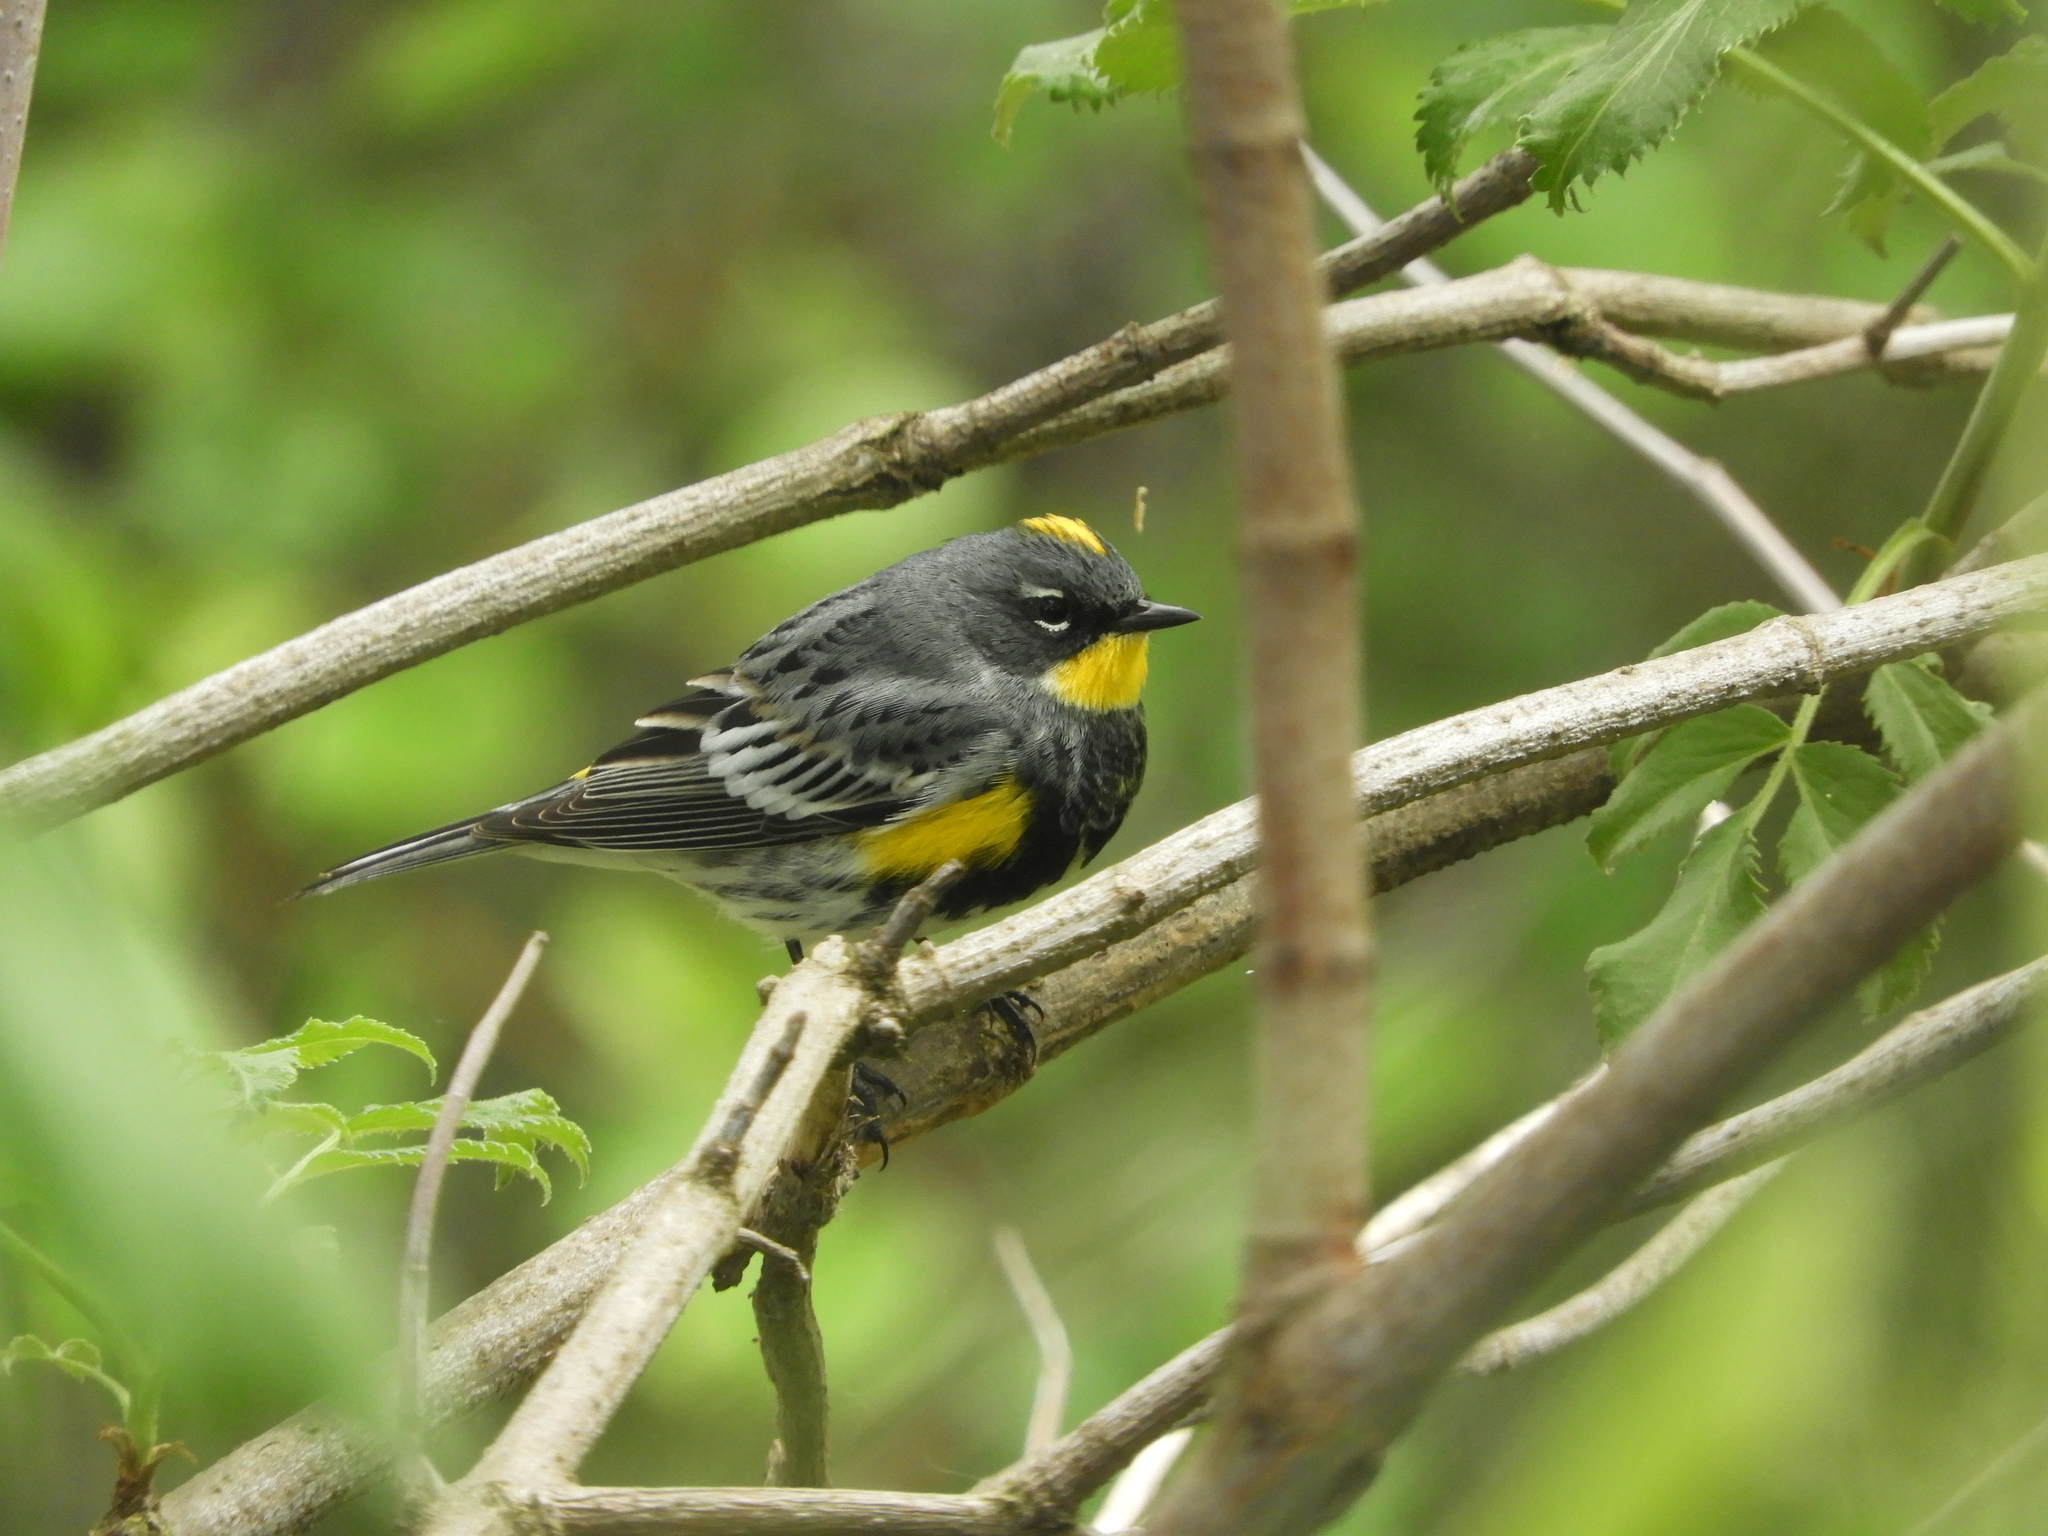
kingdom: Animalia
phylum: Chordata
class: Aves
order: Passeriformes
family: Parulidae
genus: Setophaga
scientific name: Setophaga auduboni
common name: Audubon's warbler
